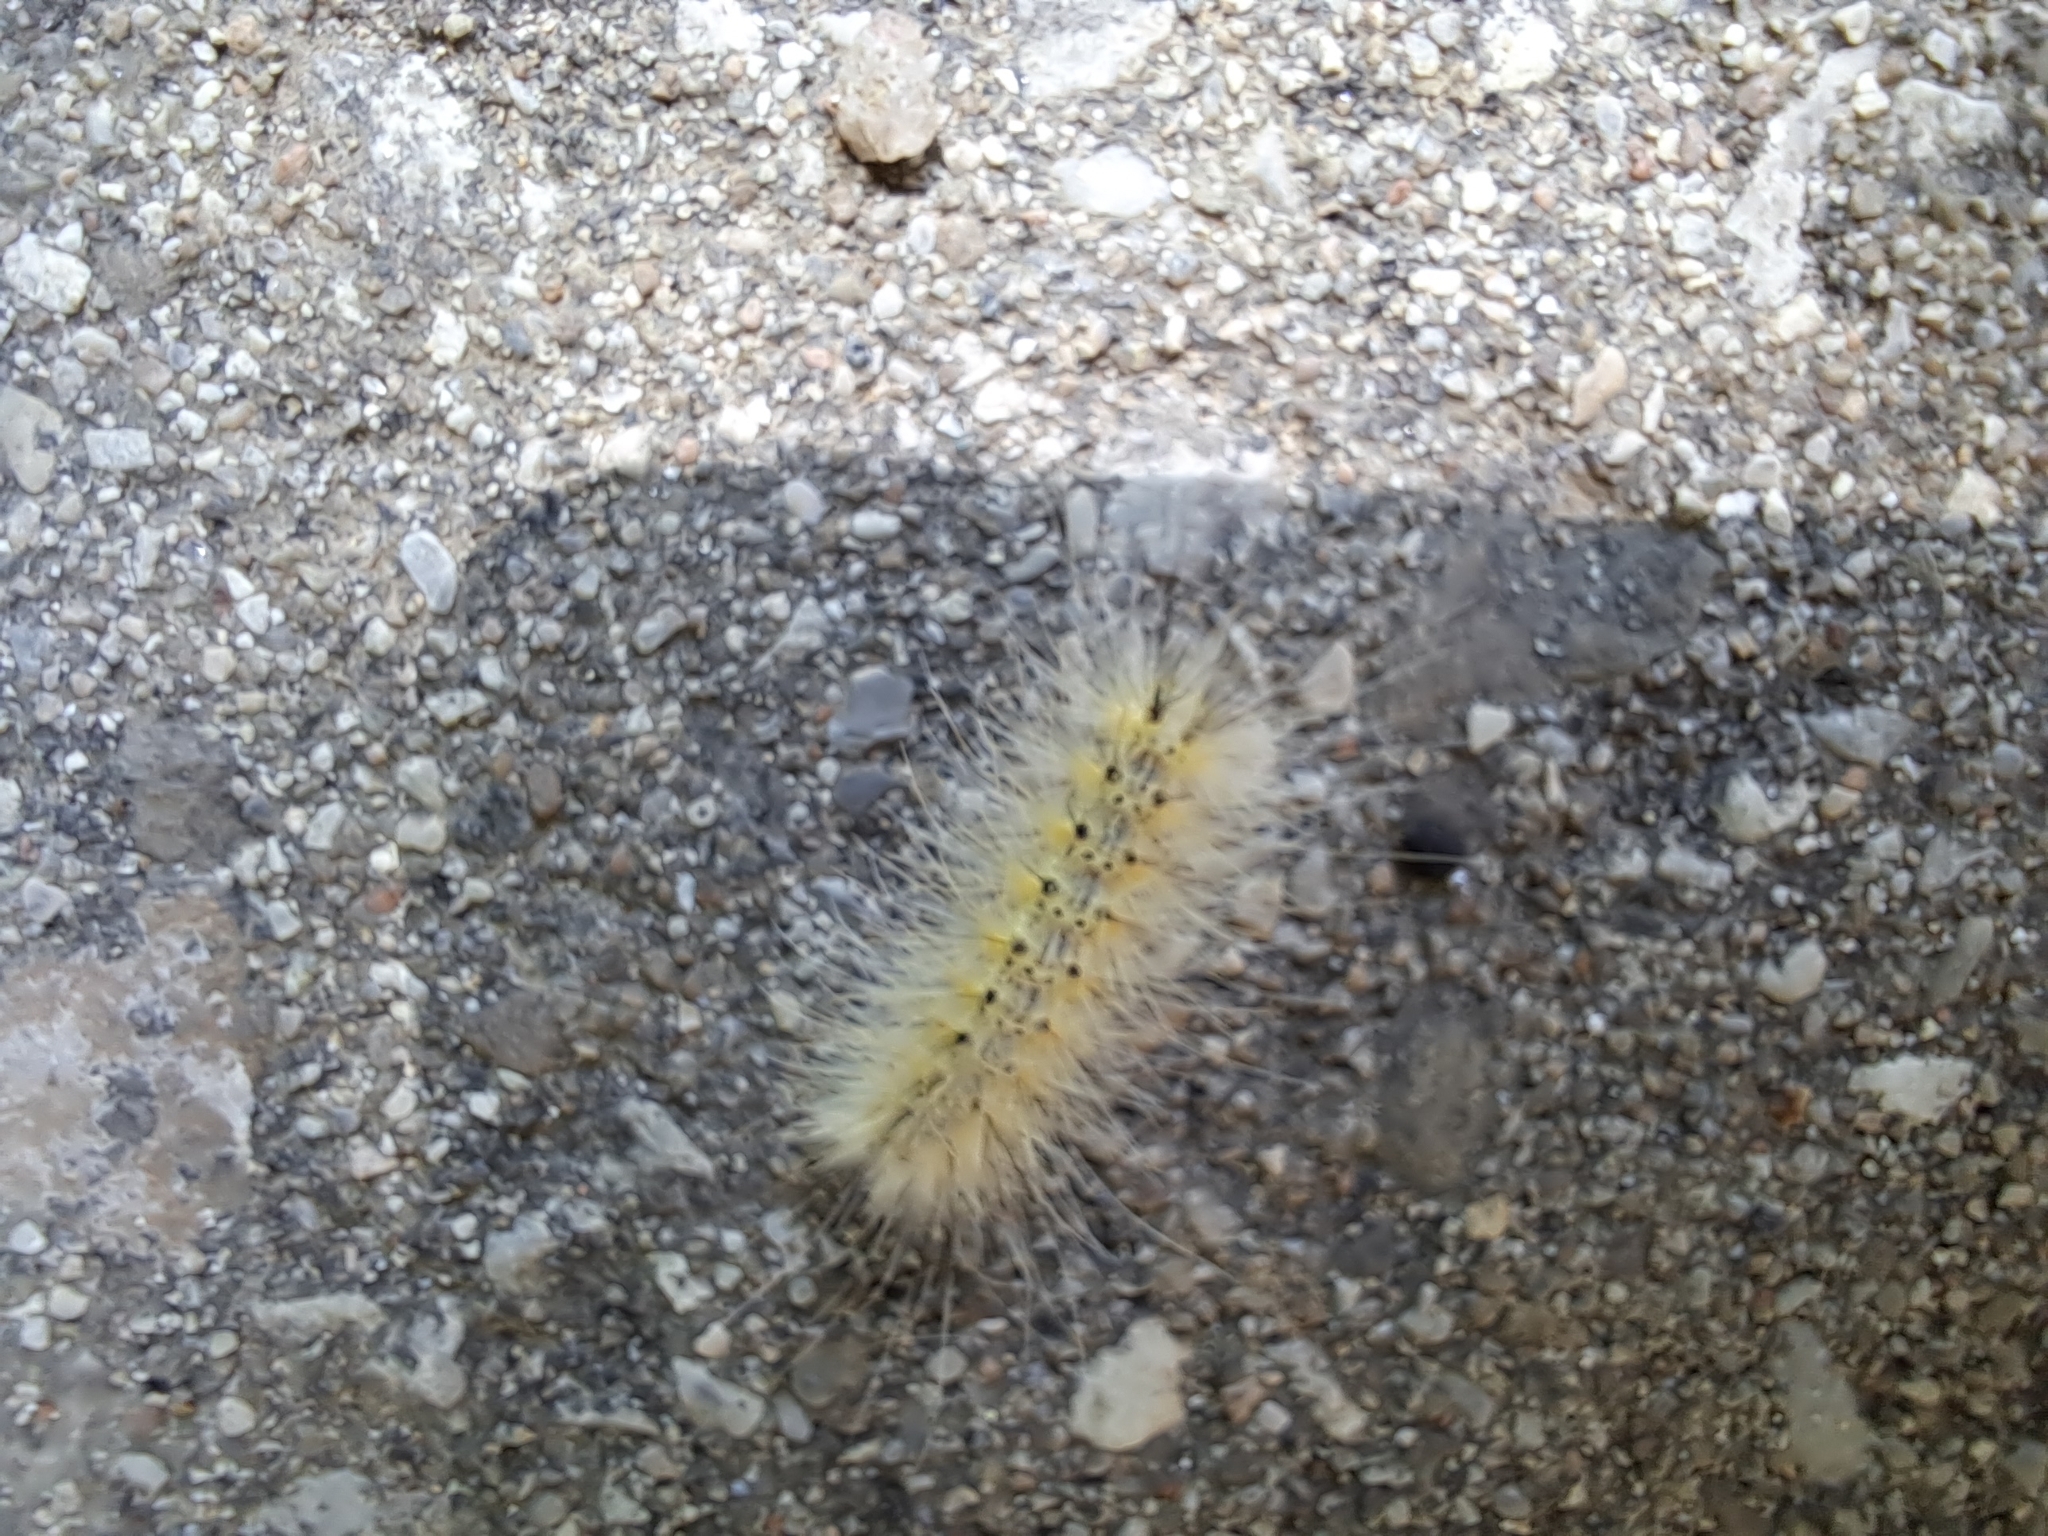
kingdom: Animalia
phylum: Arthropoda
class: Insecta
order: Lepidoptera
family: Erebidae
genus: Hyphantria
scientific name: Hyphantria cunea
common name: American white moth
